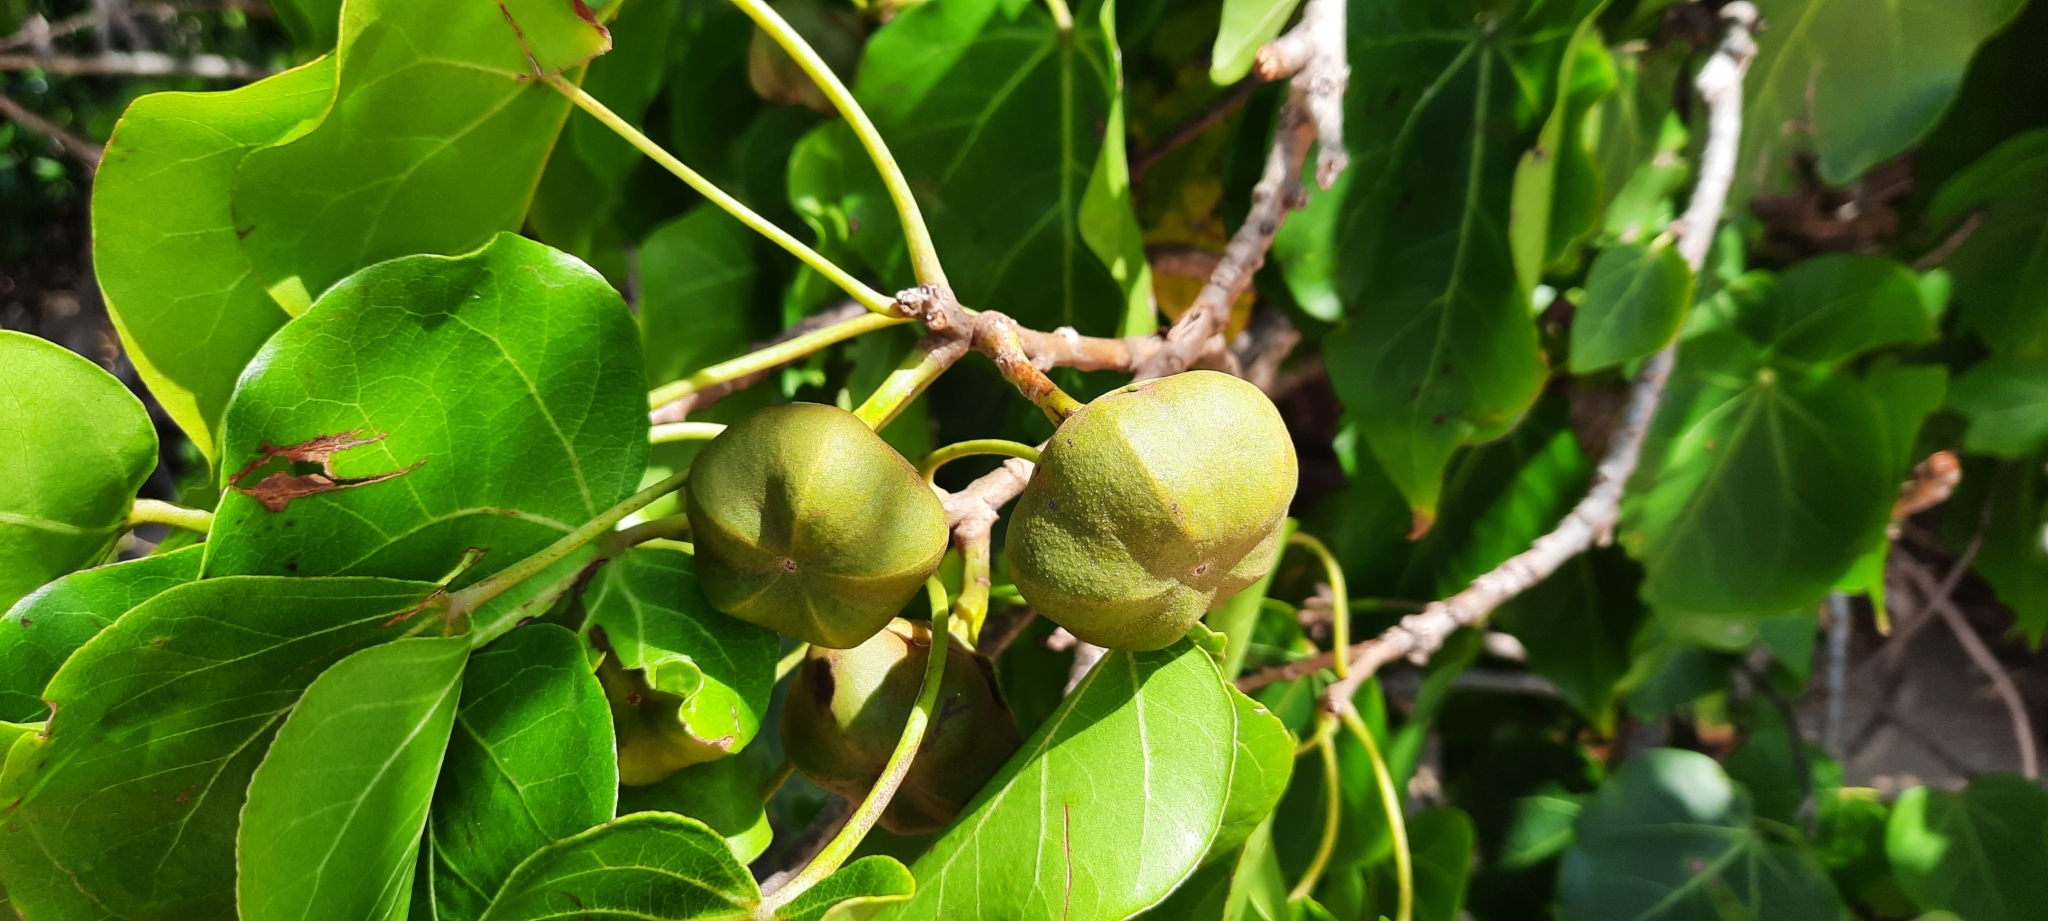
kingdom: Plantae
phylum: Tracheophyta
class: Magnoliopsida
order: Malvales
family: Malvaceae
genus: Thespesia
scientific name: Thespesia populnea
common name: Seaside mahoe
